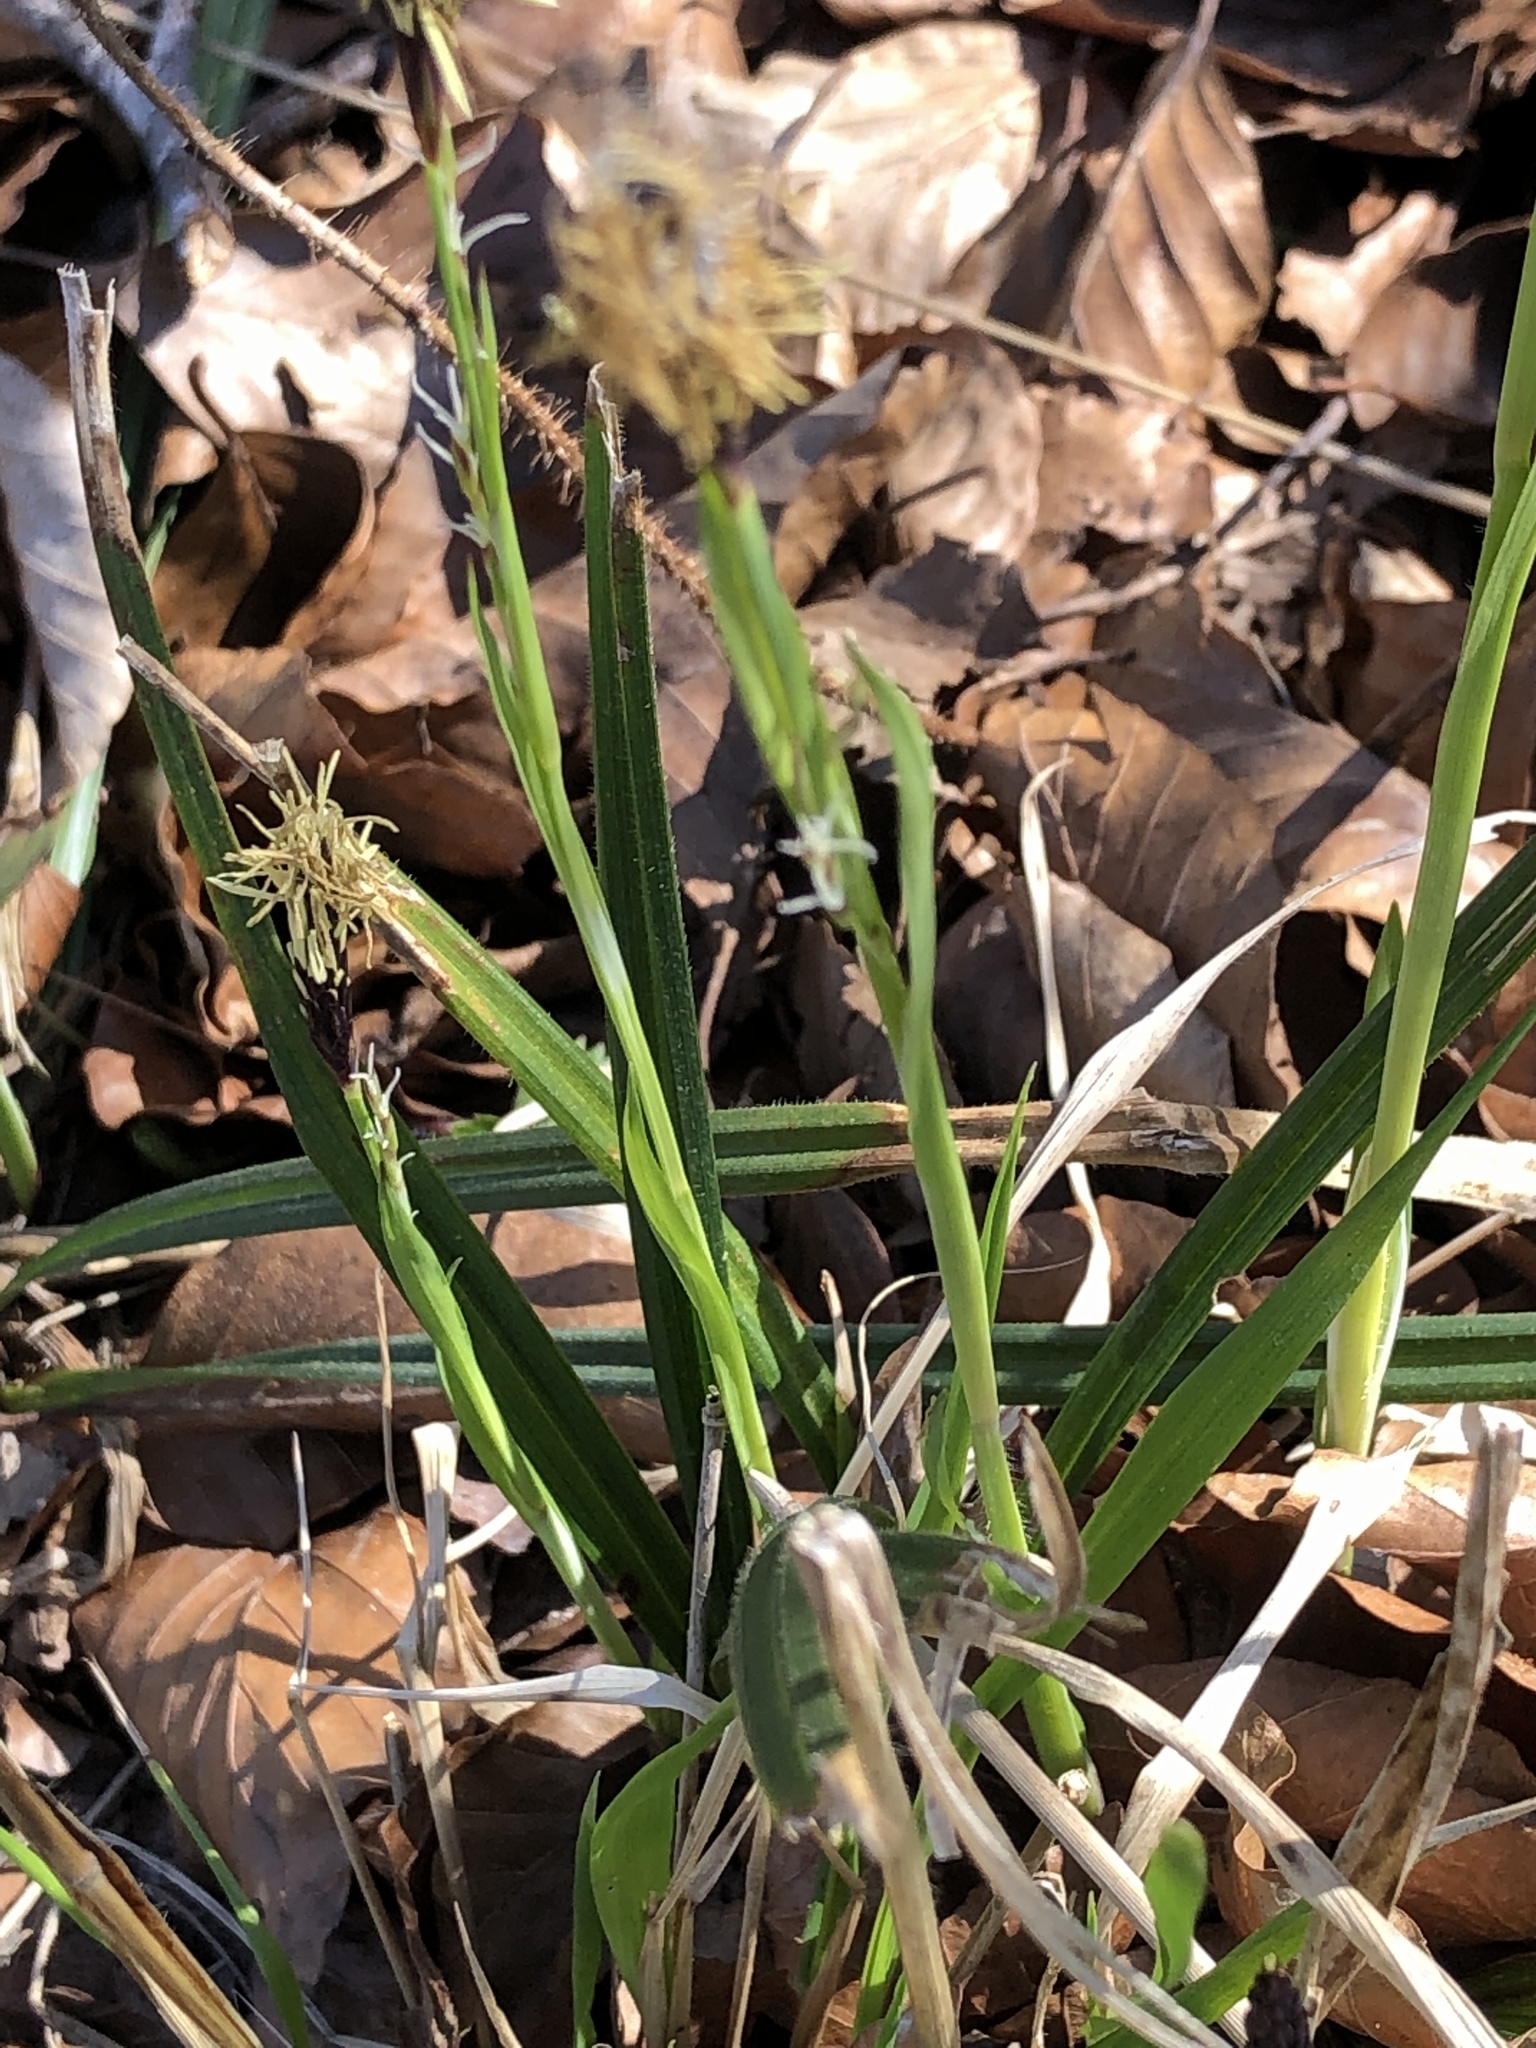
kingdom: Plantae
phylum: Tracheophyta
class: Liliopsida
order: Poales
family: Cyperaceae
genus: Carex
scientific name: Carex pilosa
